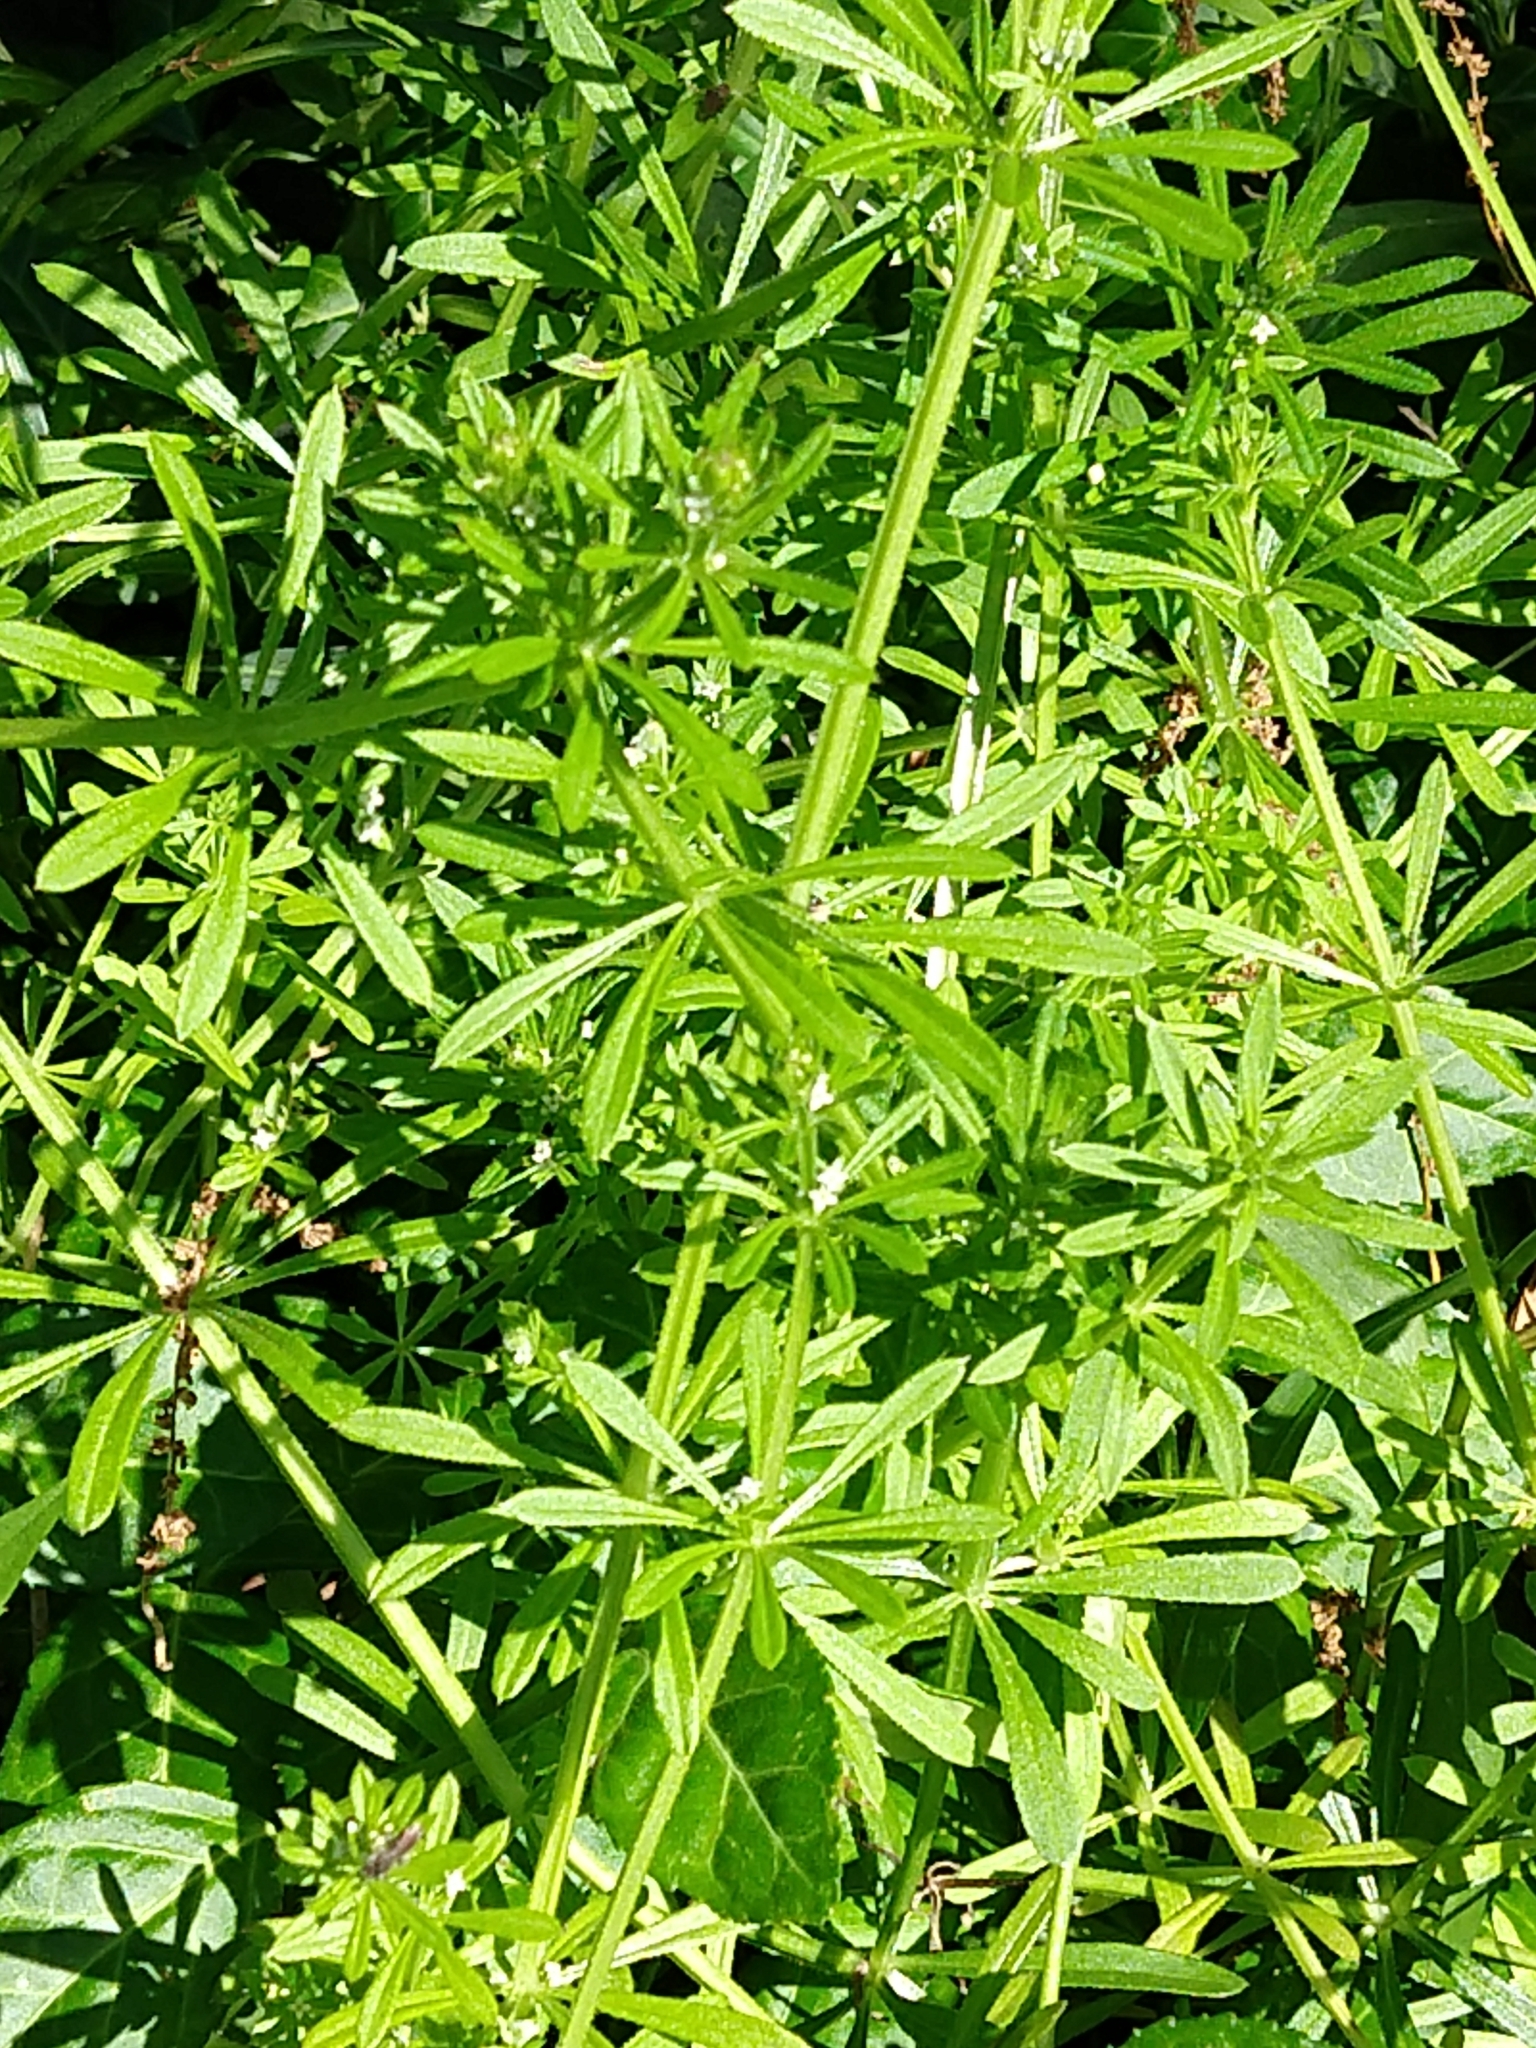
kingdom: Plantae
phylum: Tracheophyta
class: Magnoliopsida
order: Gentianales
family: Rubiaceae
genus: Galium
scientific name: Galium aparine
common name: Cleavers
